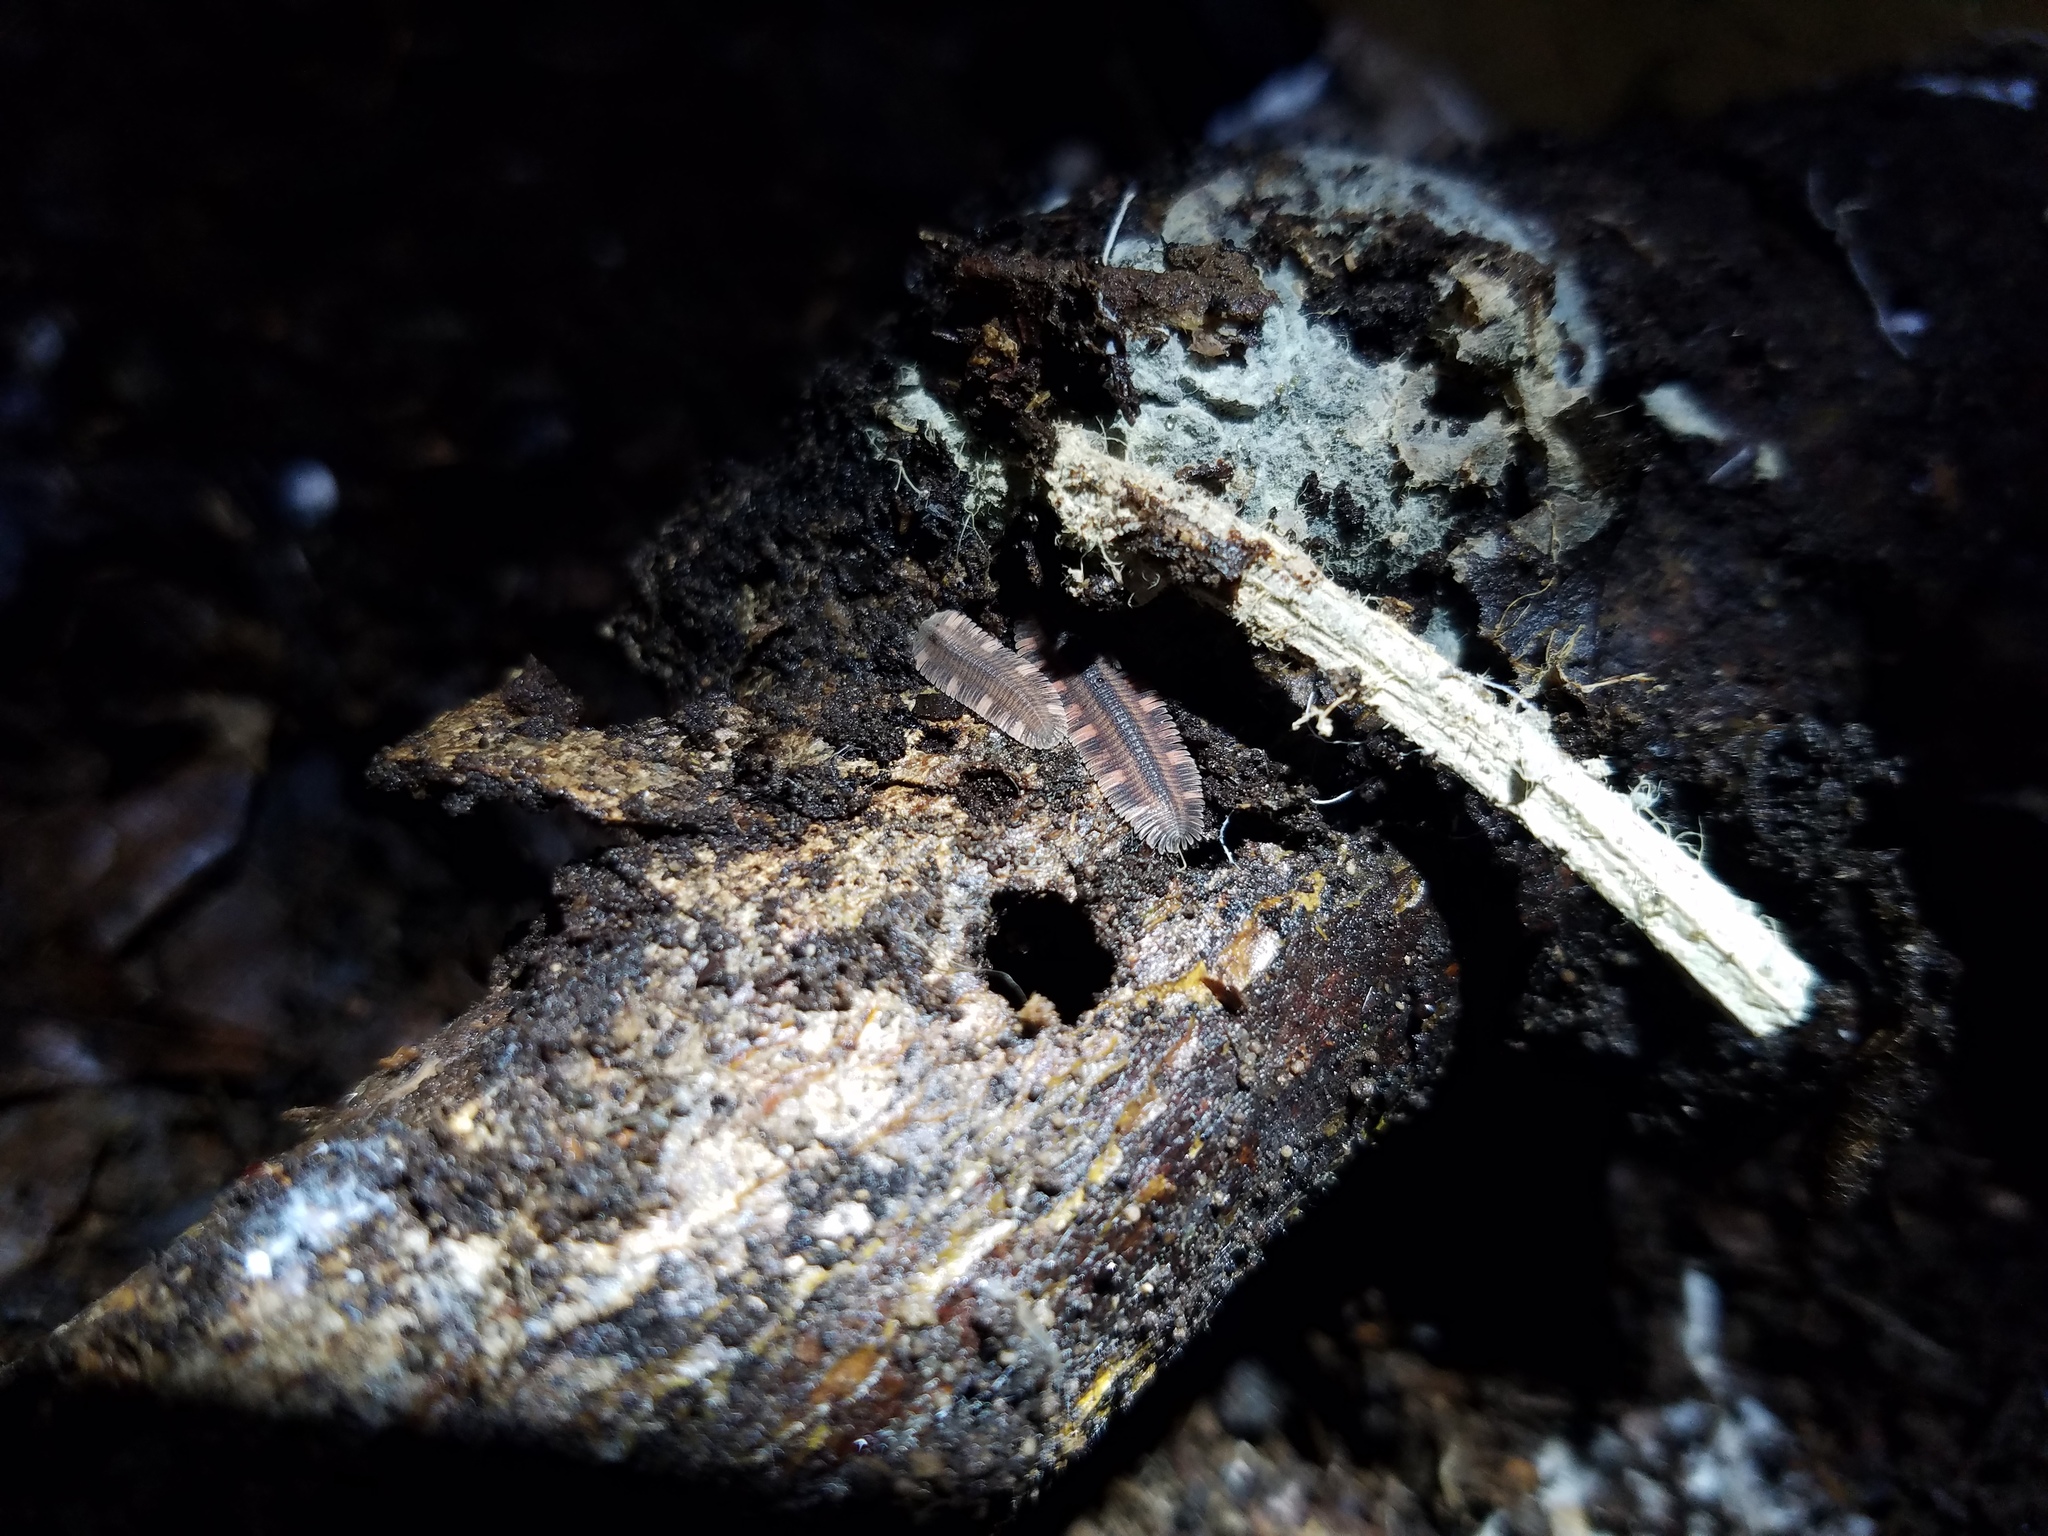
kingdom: Animalia
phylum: Arthropoda
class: Diplopoda
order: Platydesmida
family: Platydesmidae
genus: Platydesmus
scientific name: Platydesmus mexicanus
